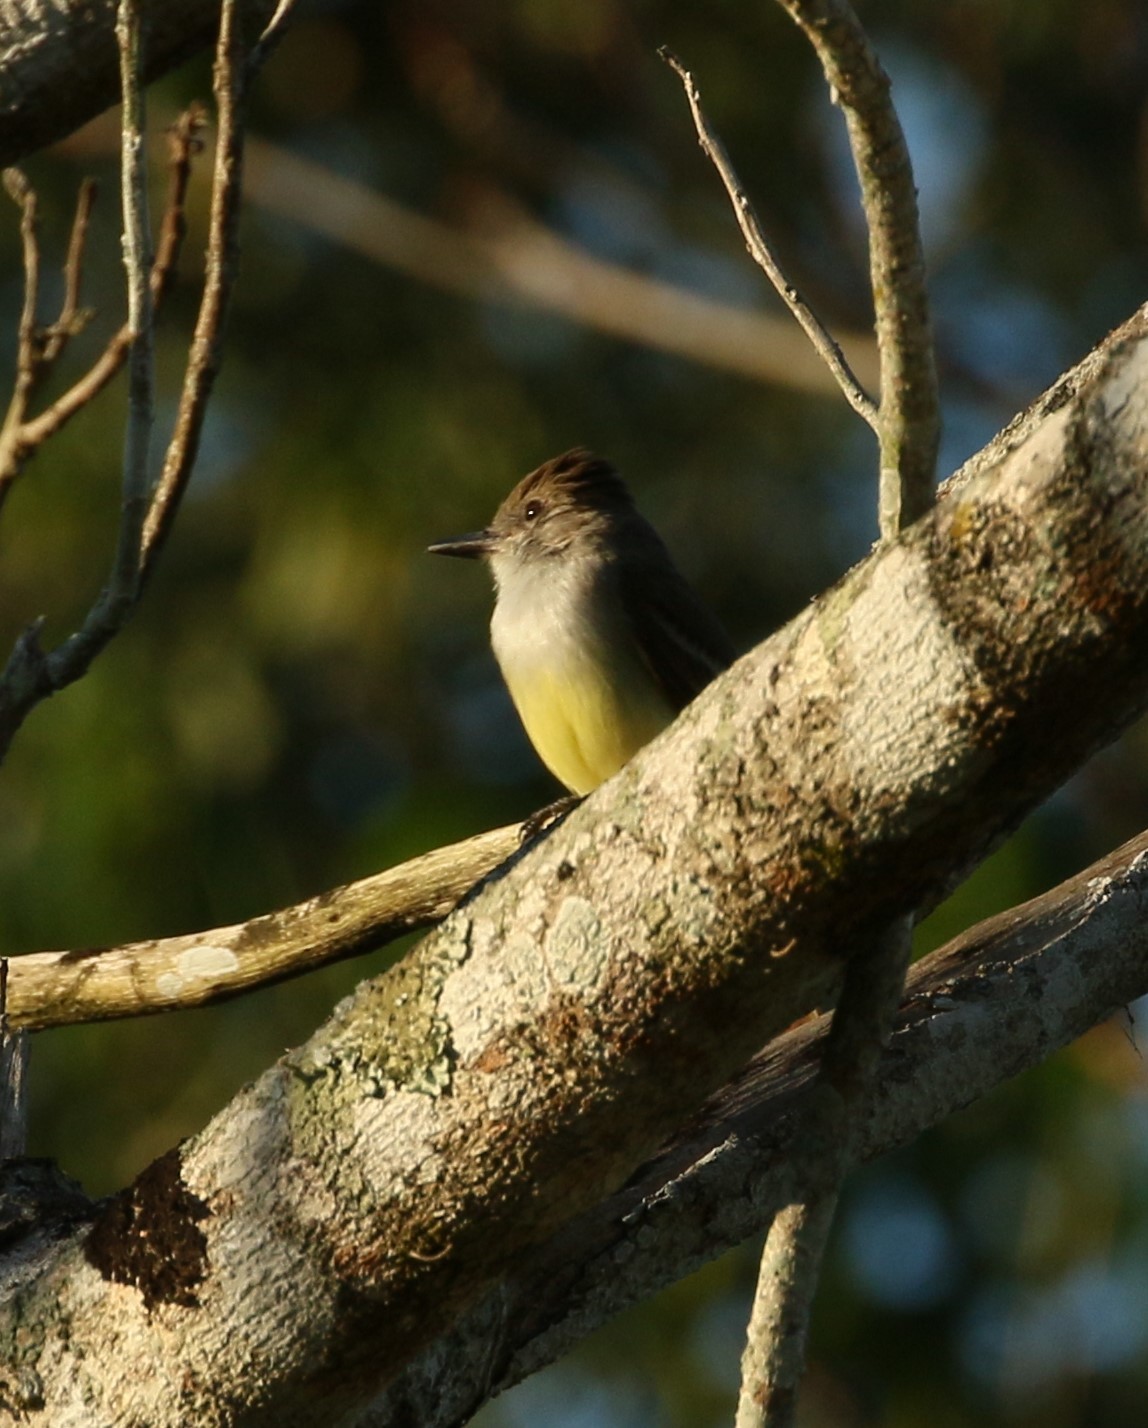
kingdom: Animalia
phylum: Chordata
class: Aves
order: Passeriformes
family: Tyrannidae
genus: Myiarchus
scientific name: Myiarchus tuberculifer
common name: Dusky-capped flycatcher
